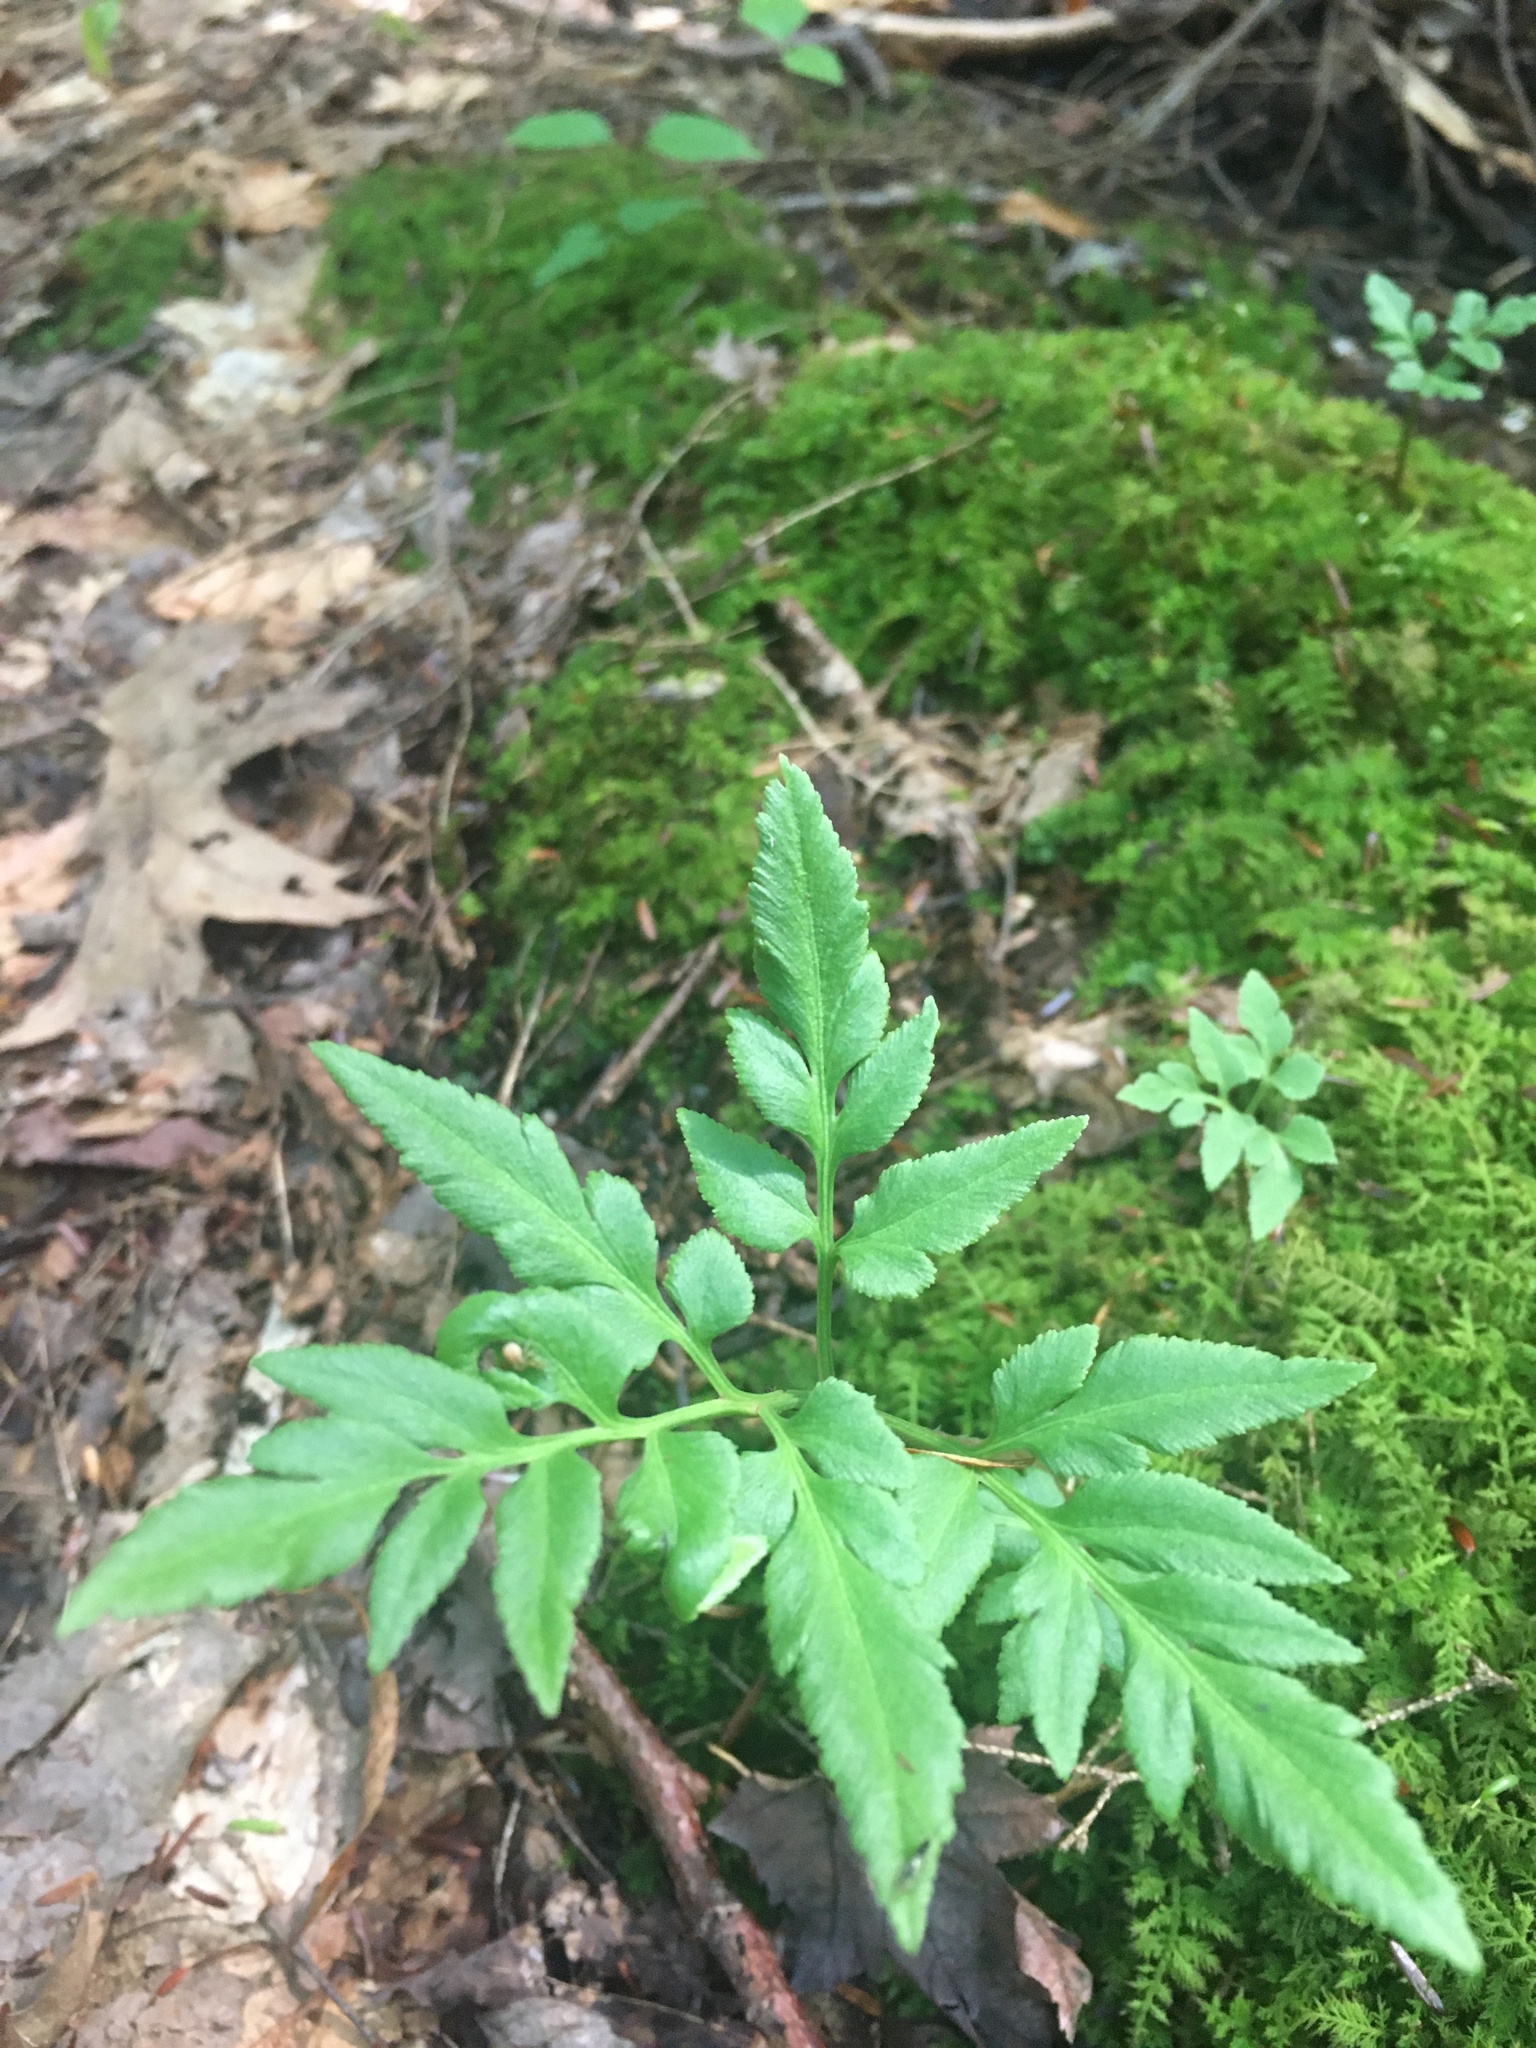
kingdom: Plantae
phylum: Tracheophyta
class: Polypodiopsida
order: Ophioglossales
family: Ophioglossaceae
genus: Sceptridium
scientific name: Sceptridium dissectum
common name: Cut-leaved grapefern
